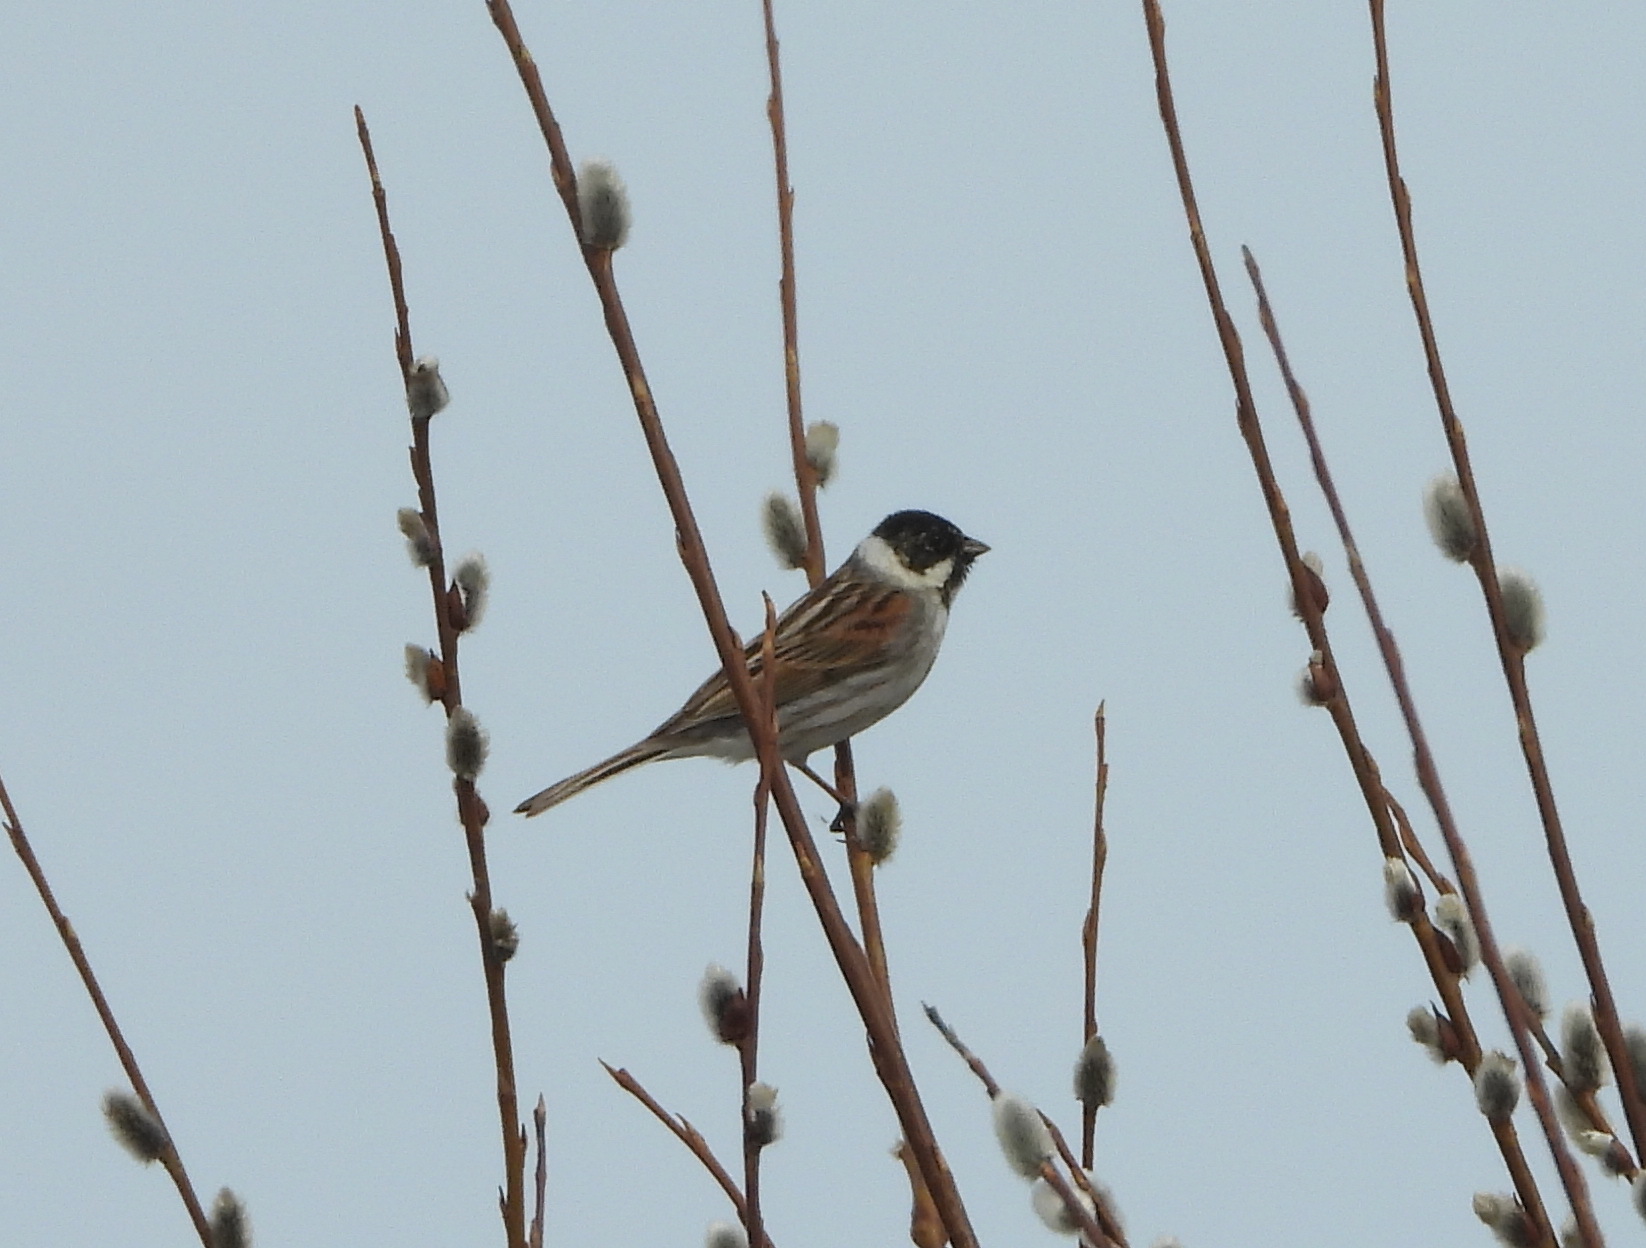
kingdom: Animalia
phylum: Chordata
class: Aves
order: Passeriformes
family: Emberizidae
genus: Emberiza
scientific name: Emberiza schoeniclus
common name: Reed bunting
